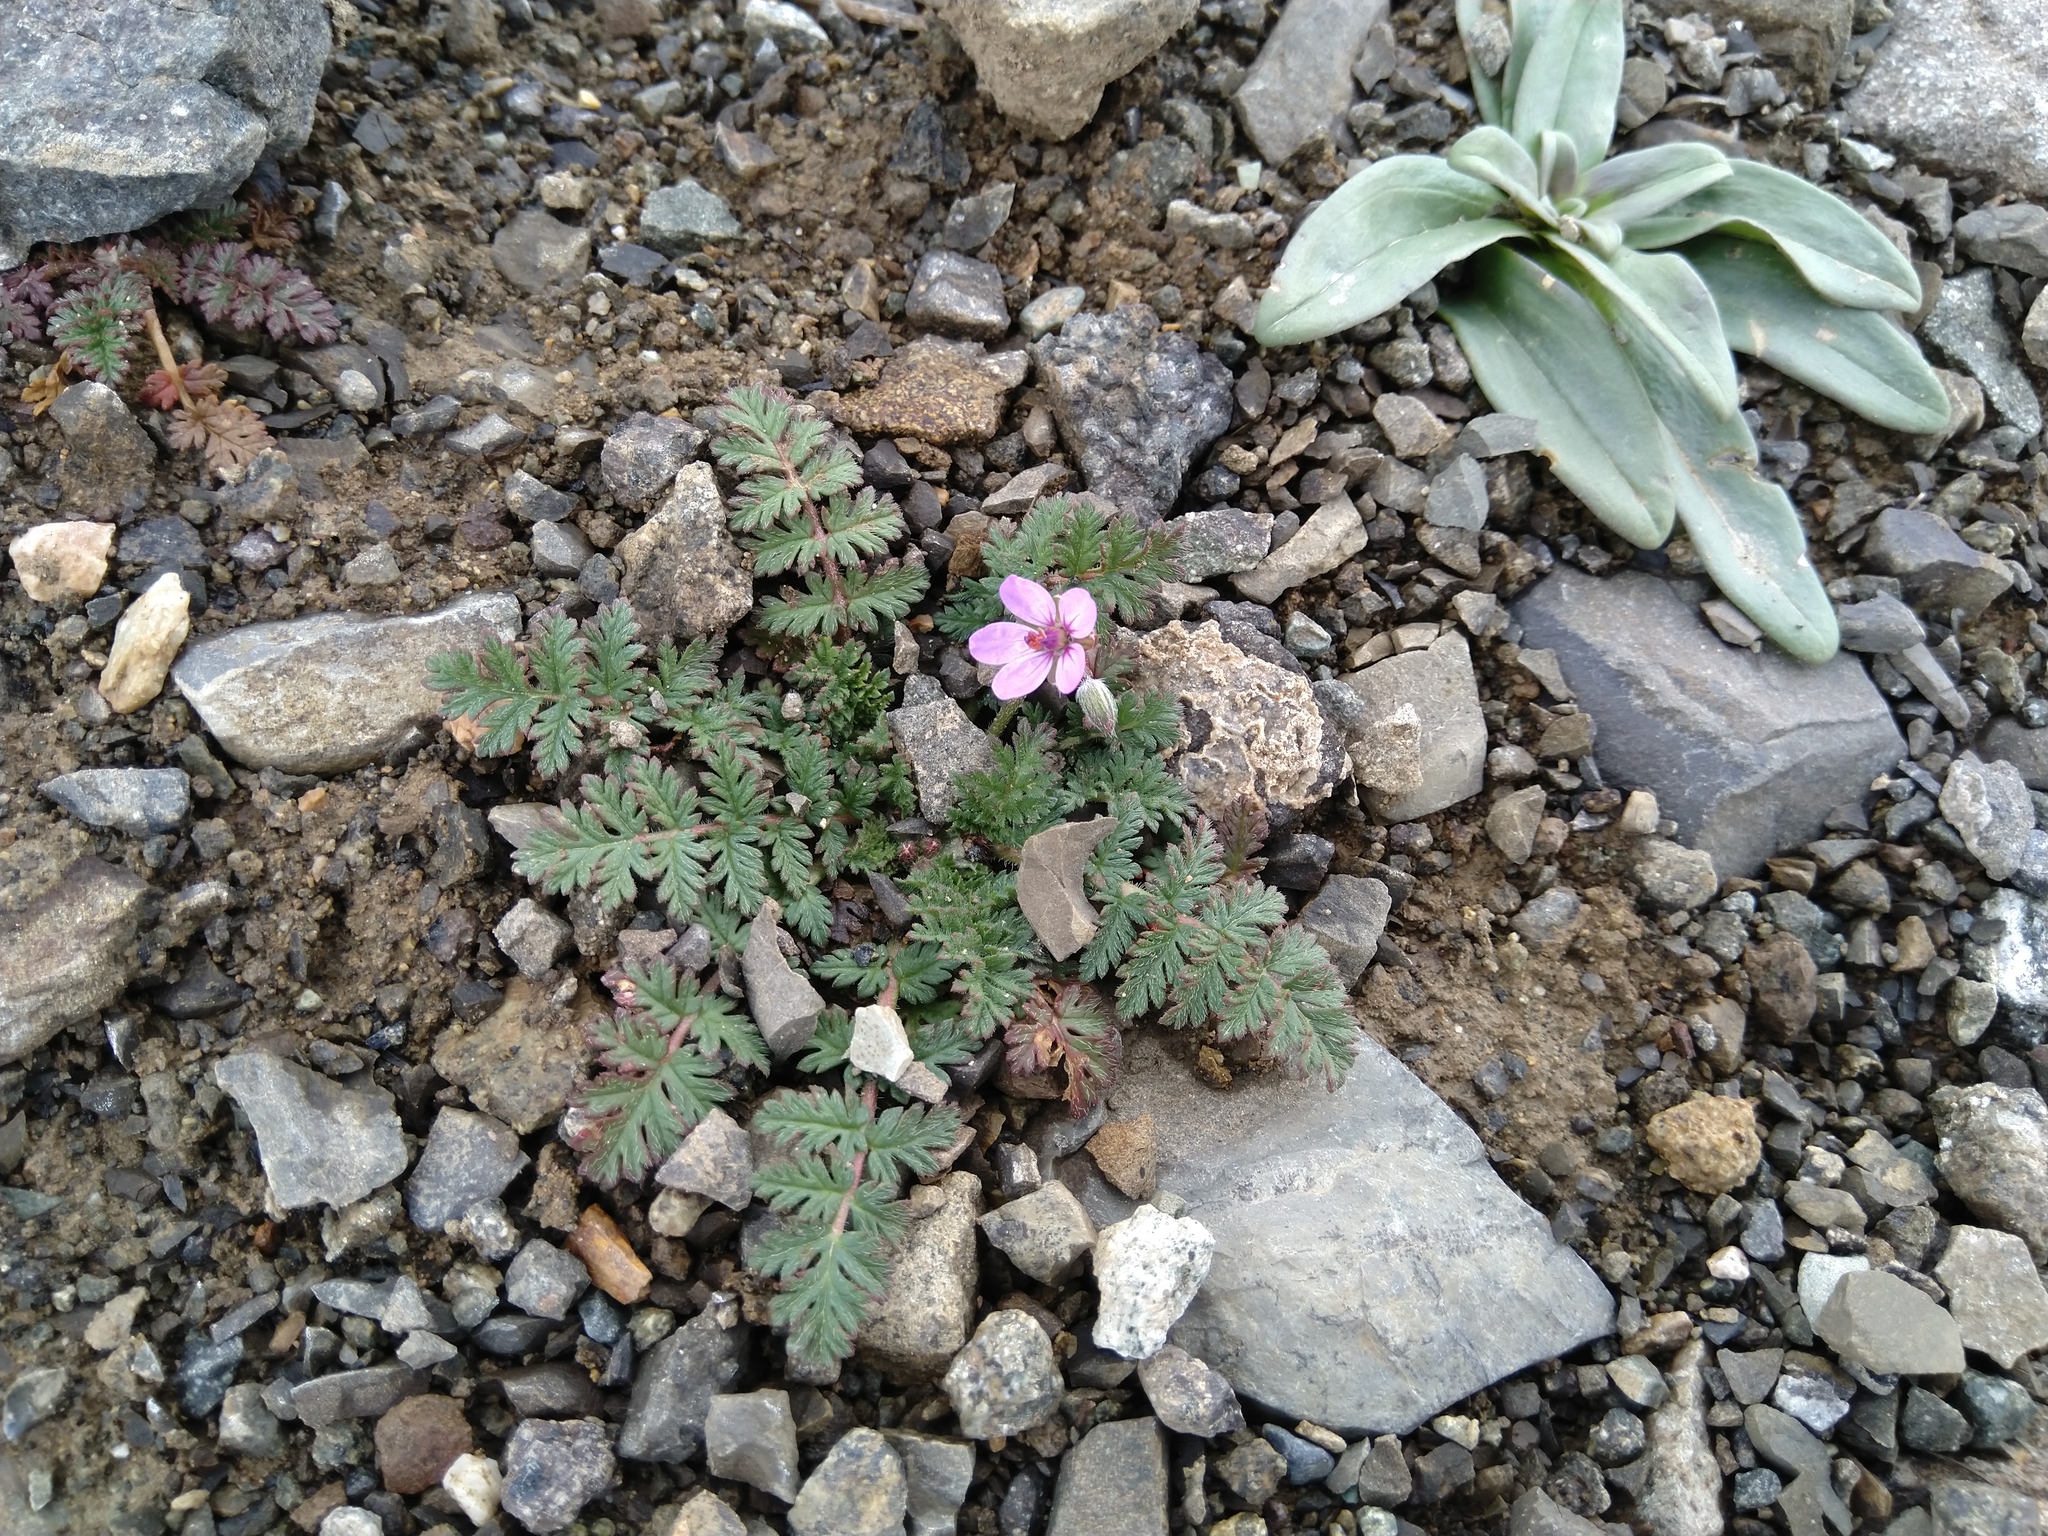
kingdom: Plantae
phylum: Tracheophyta
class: Magnoliopsida
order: Geraniales
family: Geraniaceae
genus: Erodium
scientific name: Erodium cicutarium
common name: Common stork's-bill
